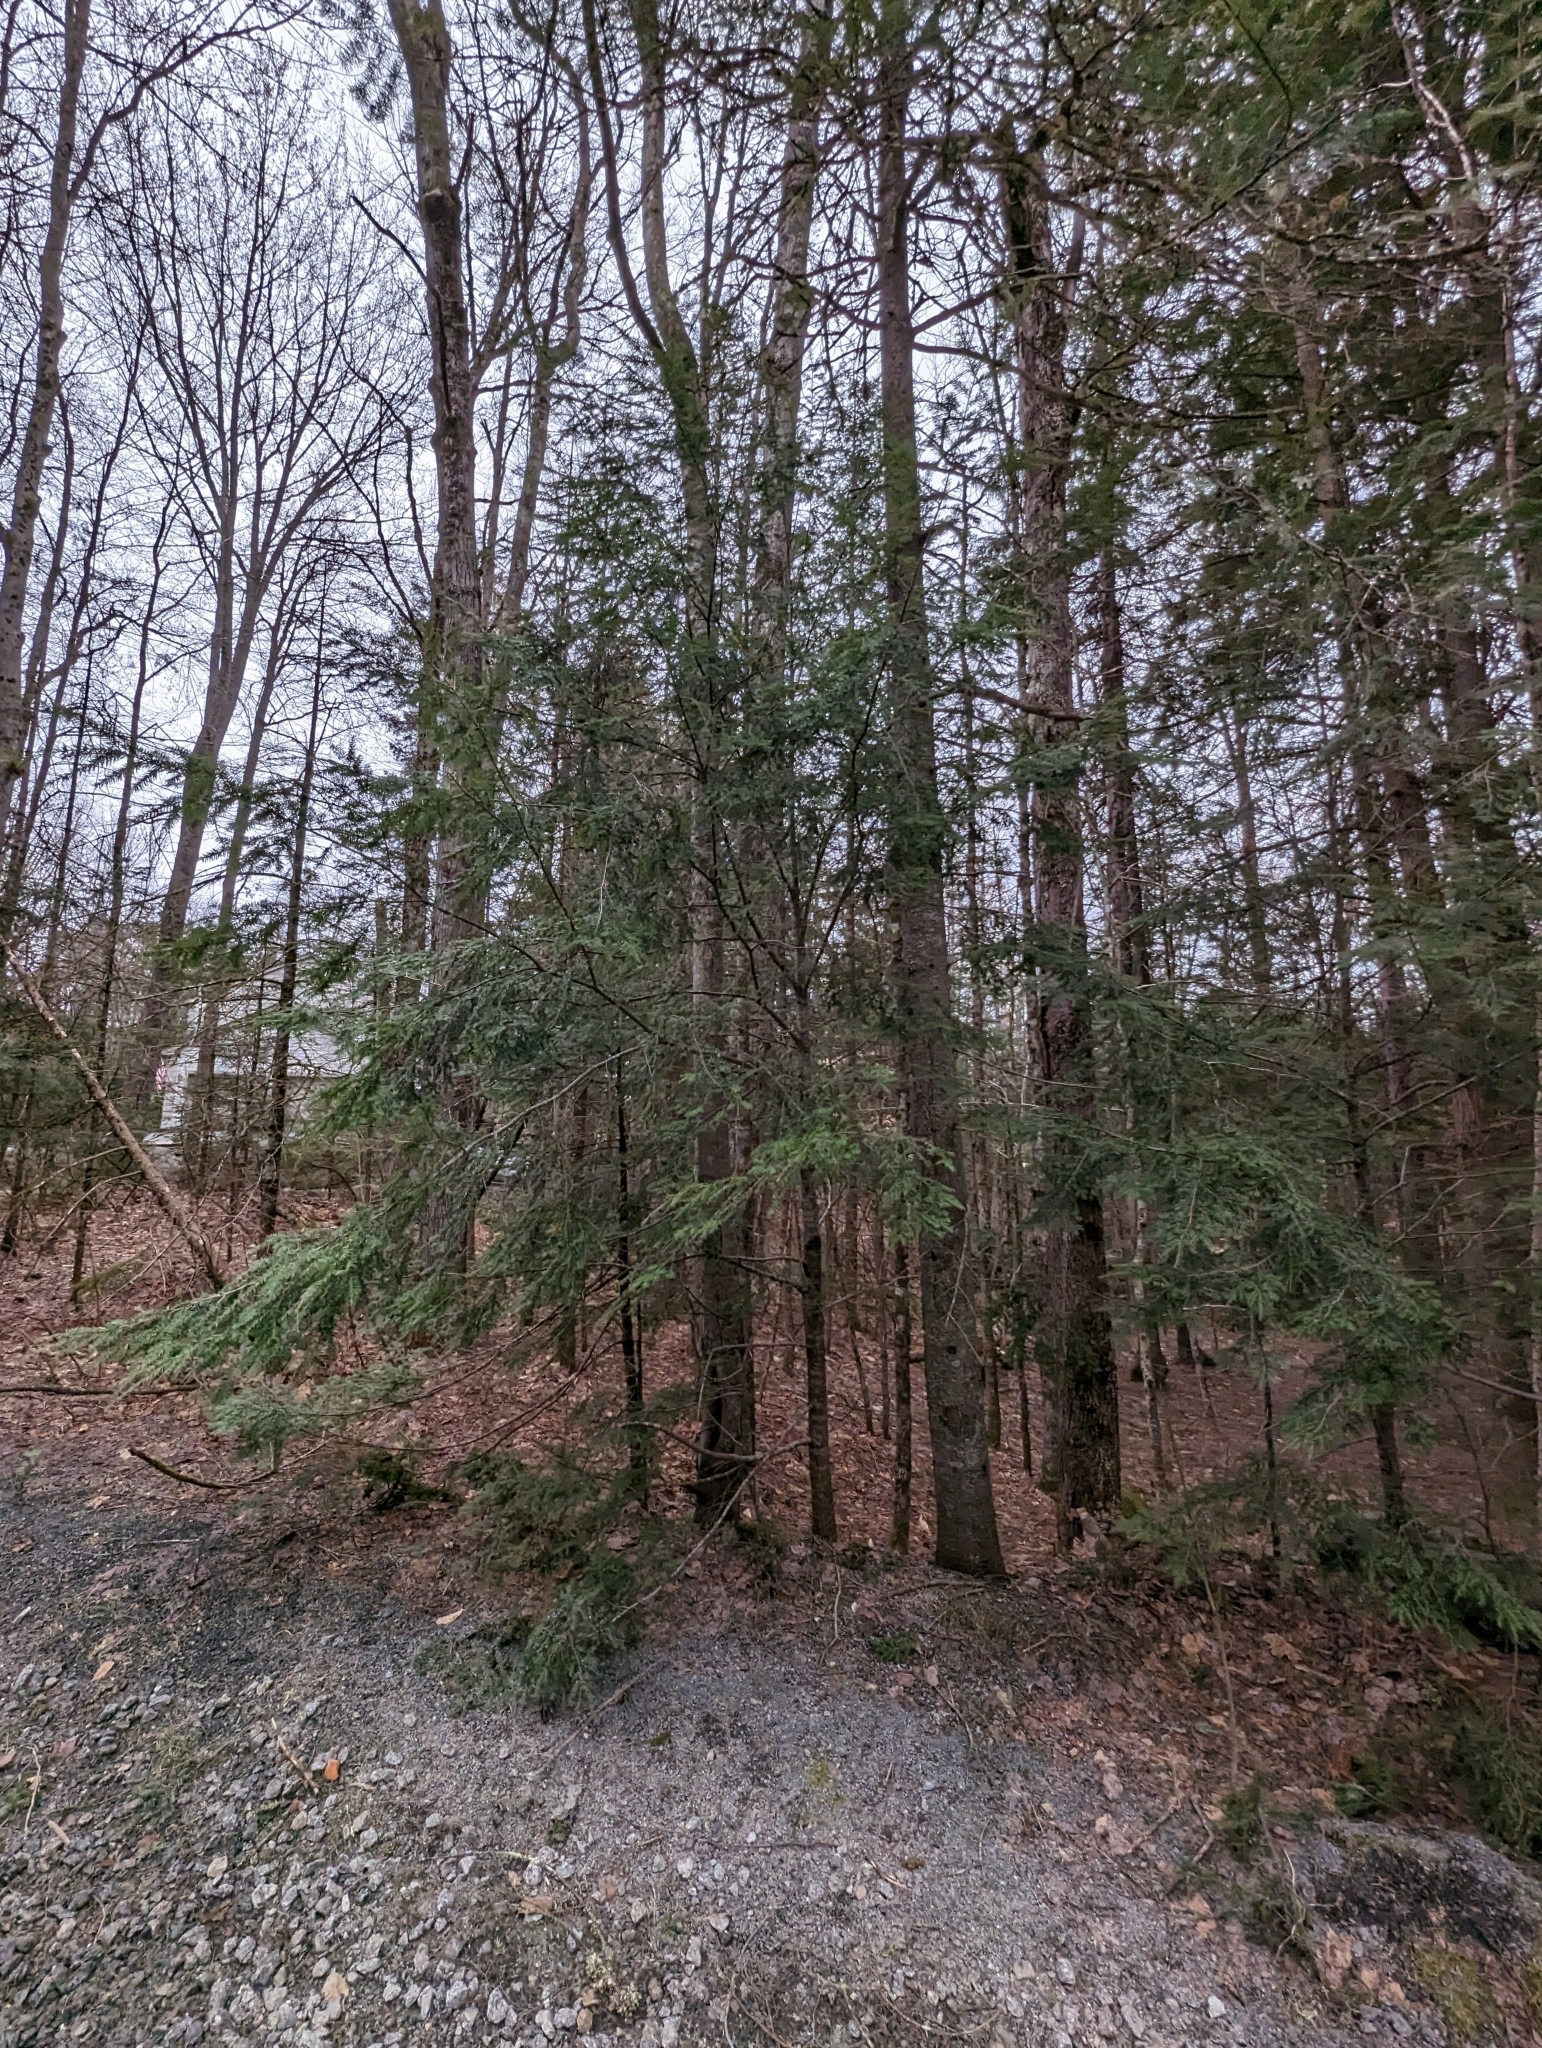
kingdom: Plantae
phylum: Tracheophyta
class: Pinopsida
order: Pinales
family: Pinaceae
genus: Tsuga
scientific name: Tsuga canadensis
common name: Eastern hemlock
